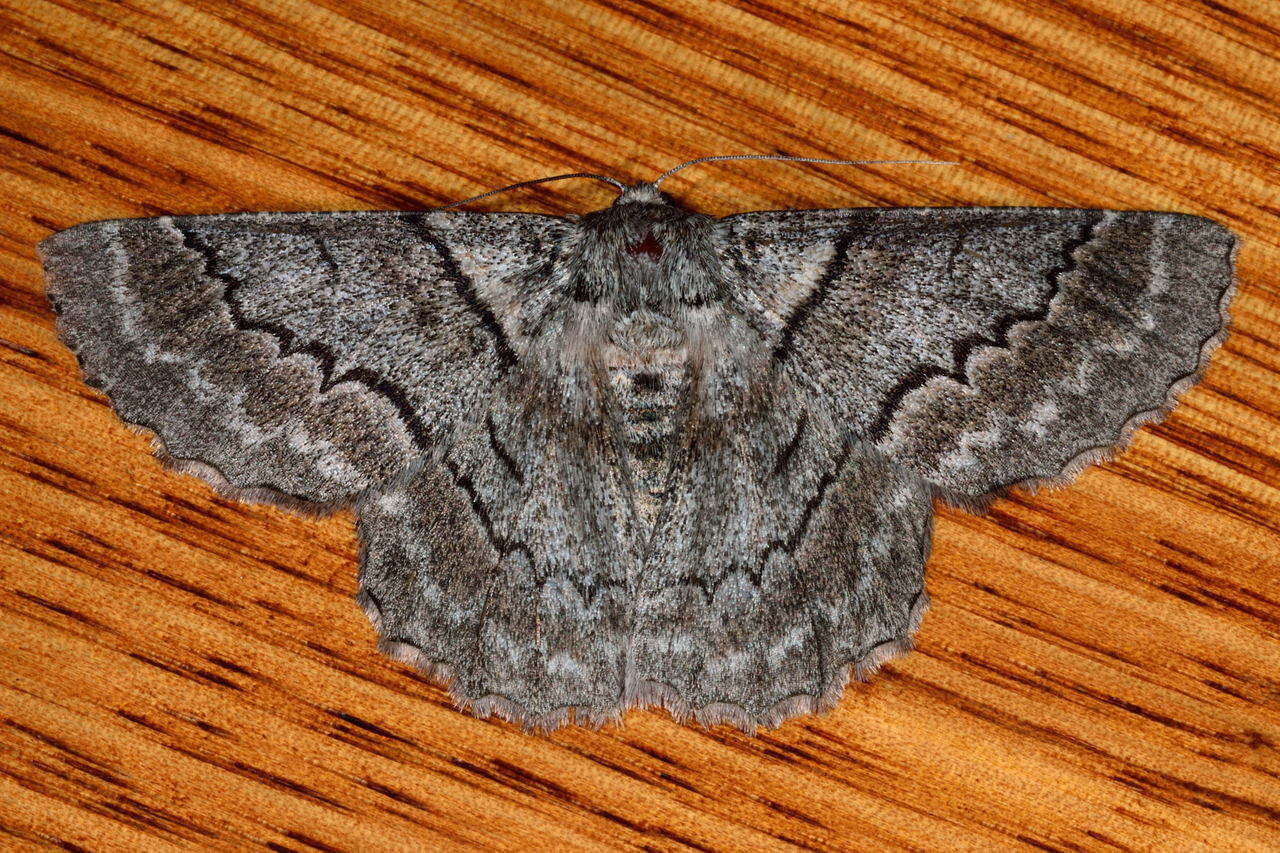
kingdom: Animalia
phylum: Arthropoda
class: Insecta
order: Lepidoptera
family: Geometridae
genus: Hypobapta
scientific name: Hypobapta tachyhalotaria
